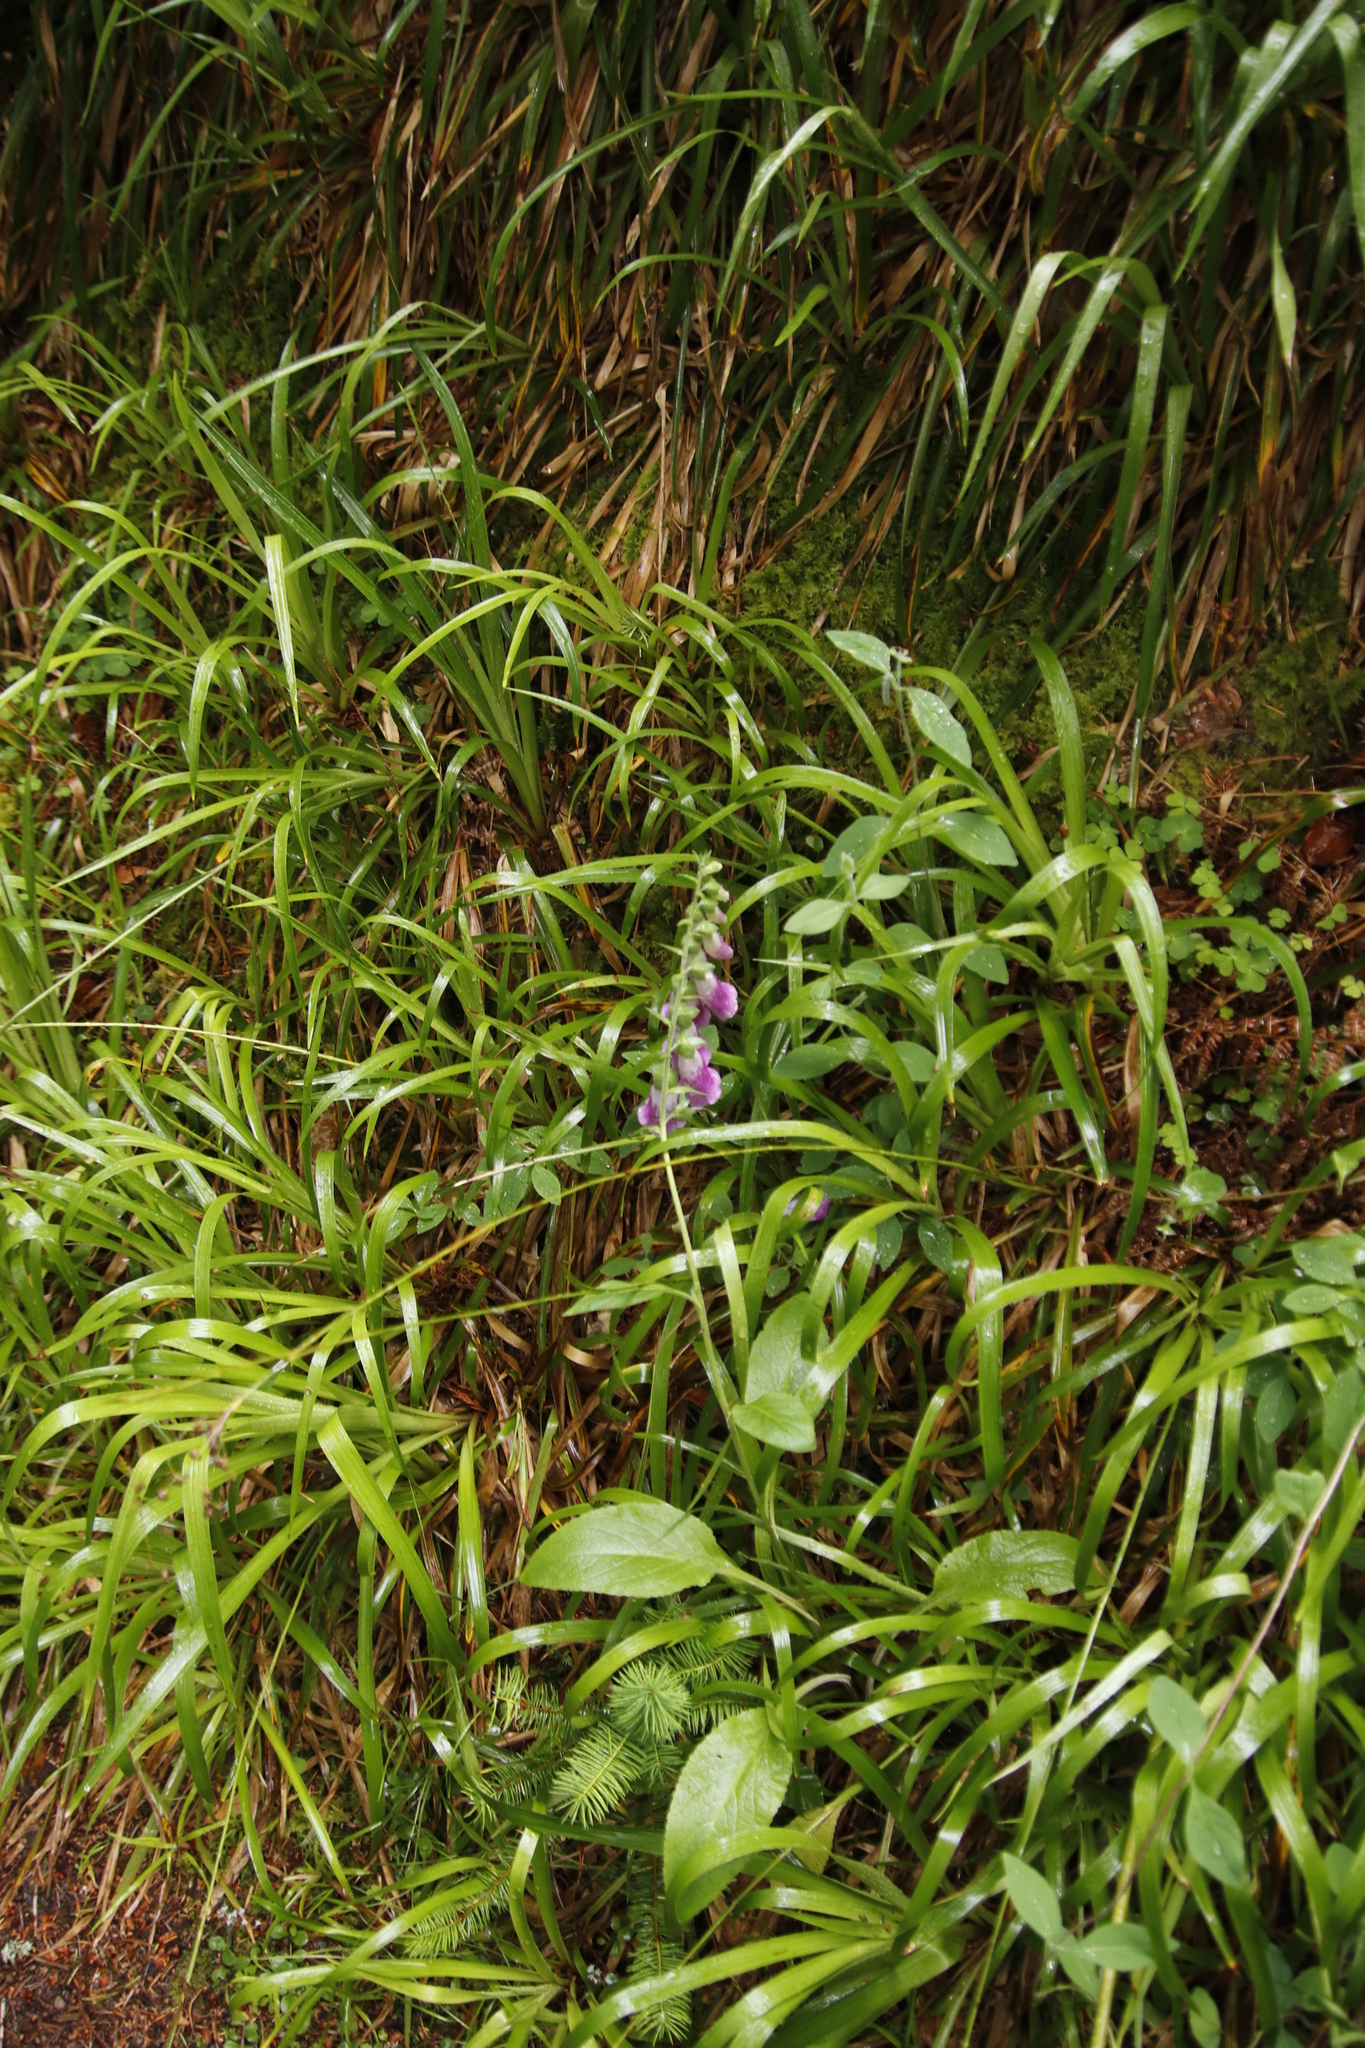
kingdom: Plantae
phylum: Tracheophyta
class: Magnoliopsida
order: Lamiales
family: Plantaginaceae
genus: Digitalis
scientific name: Digitalis purpurea
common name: Foxglove
